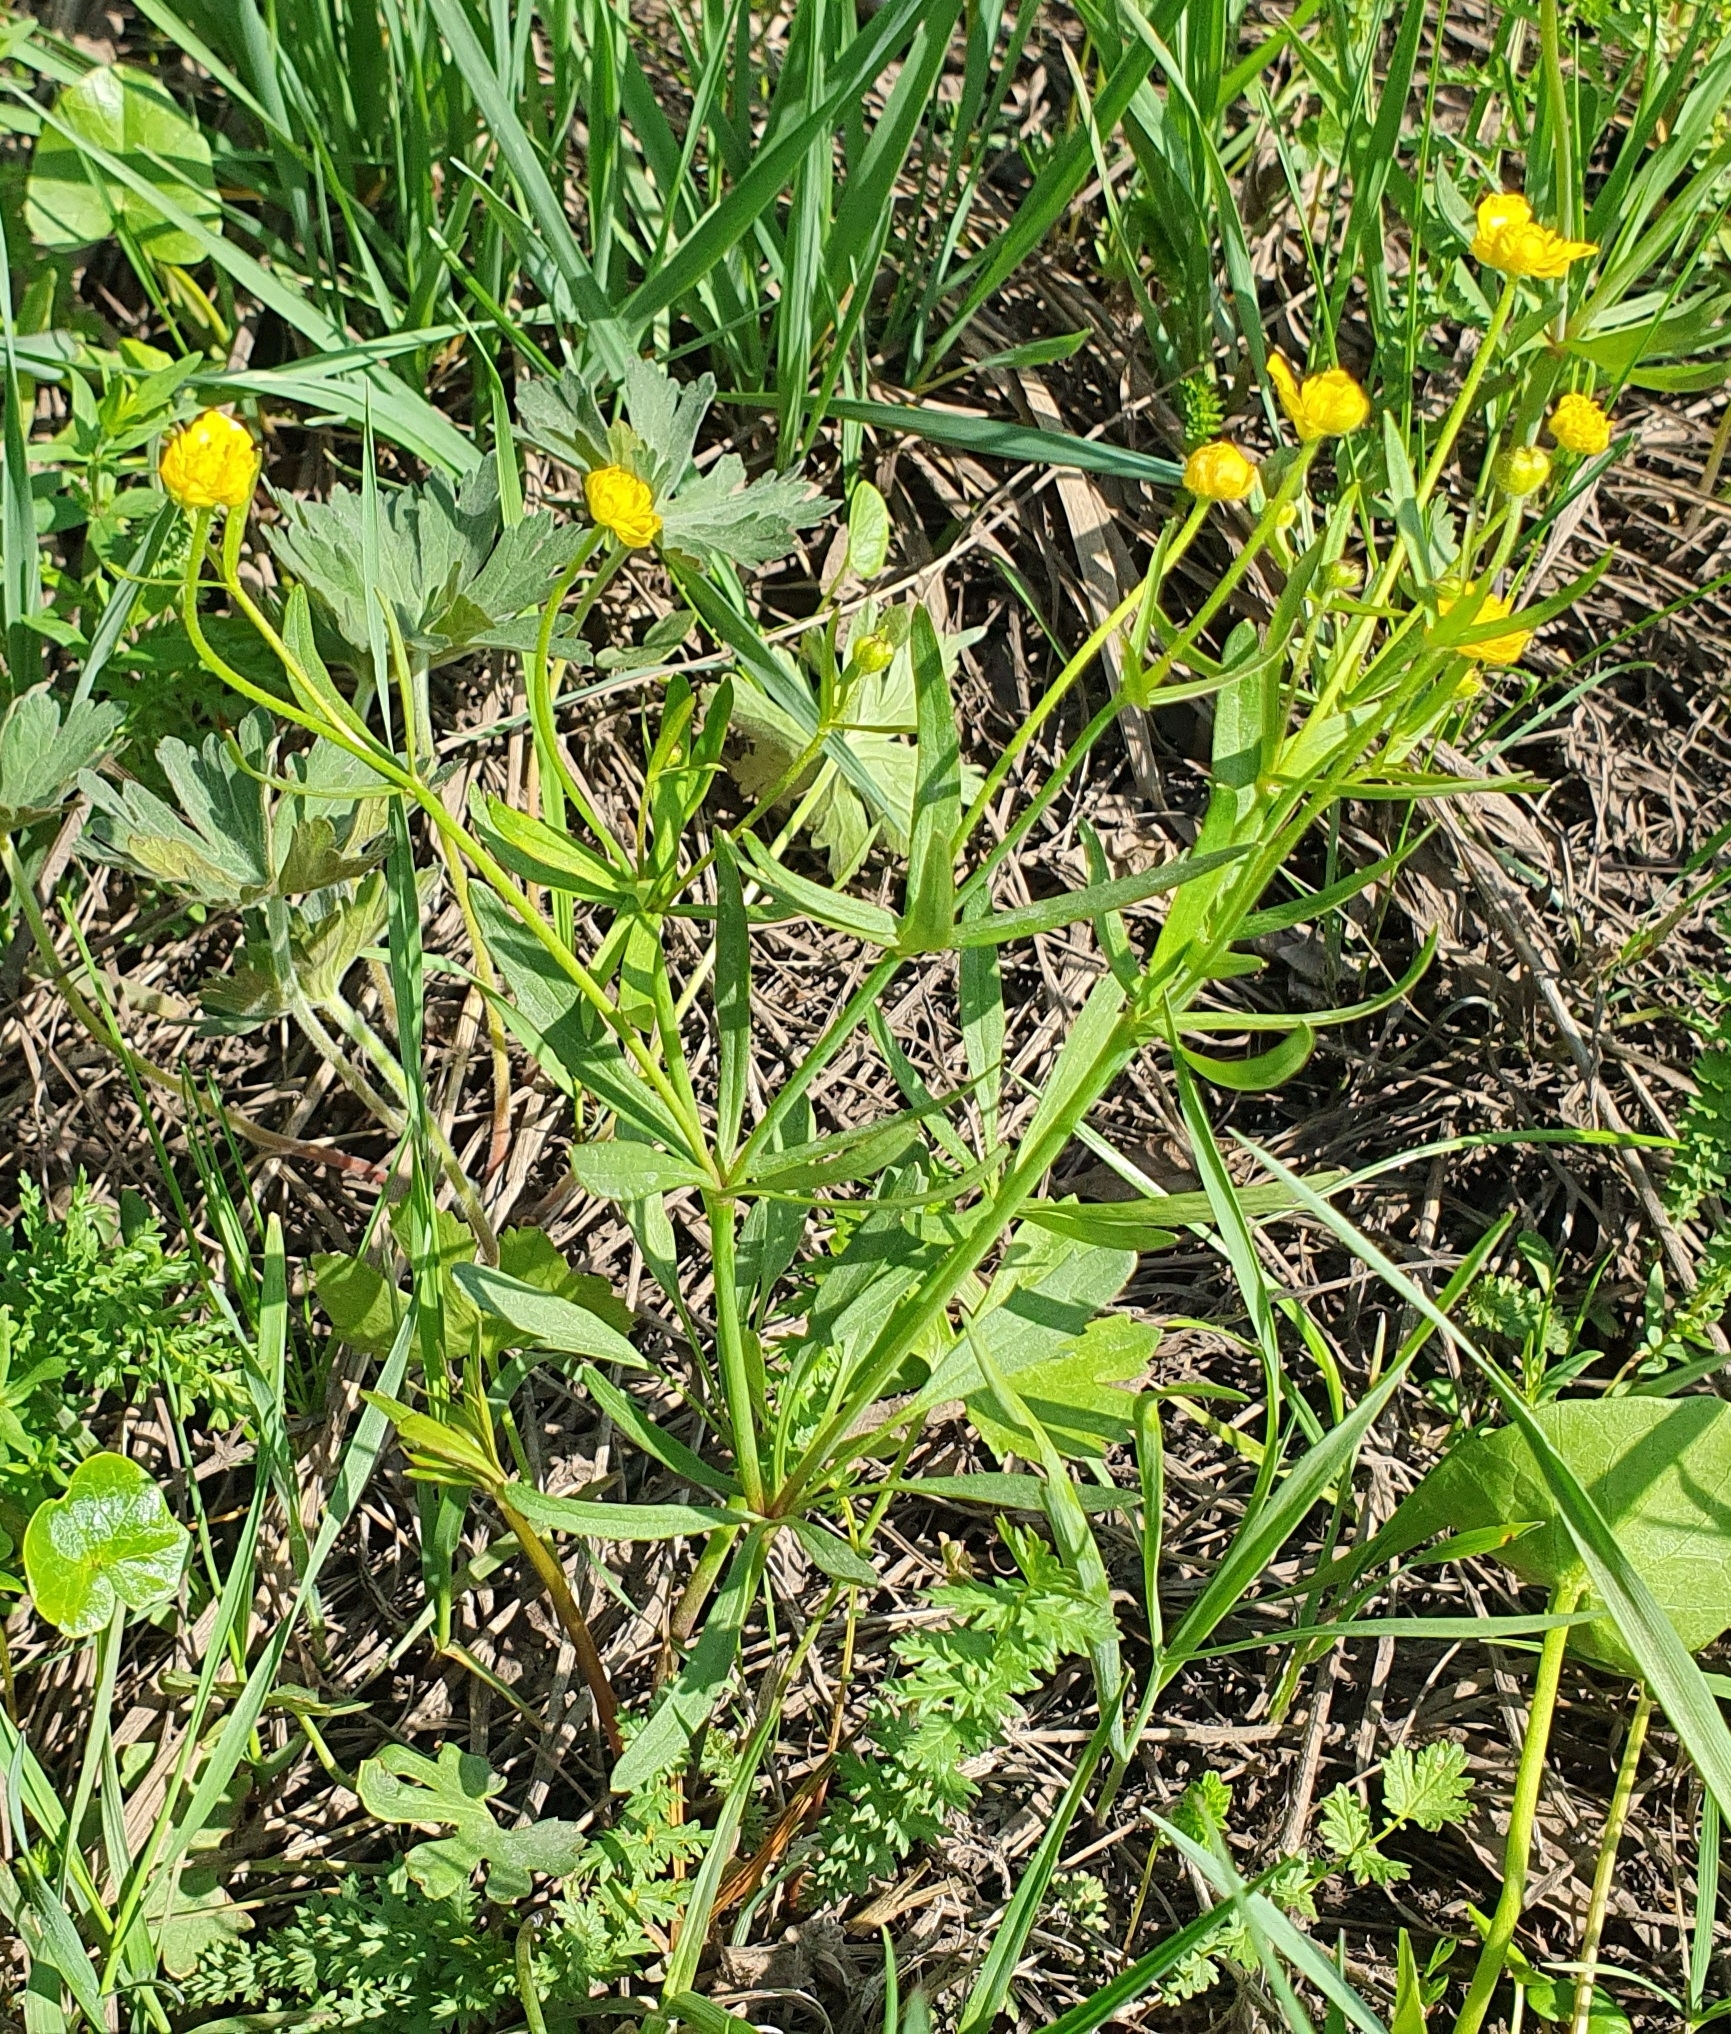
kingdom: Plantae
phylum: Tracheophyta
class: Magnoliopsida
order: Ranunculales
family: Ranunculaceae
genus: Ranunculus
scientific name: Ranunculus auricomus
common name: Goldilocks buttercup
